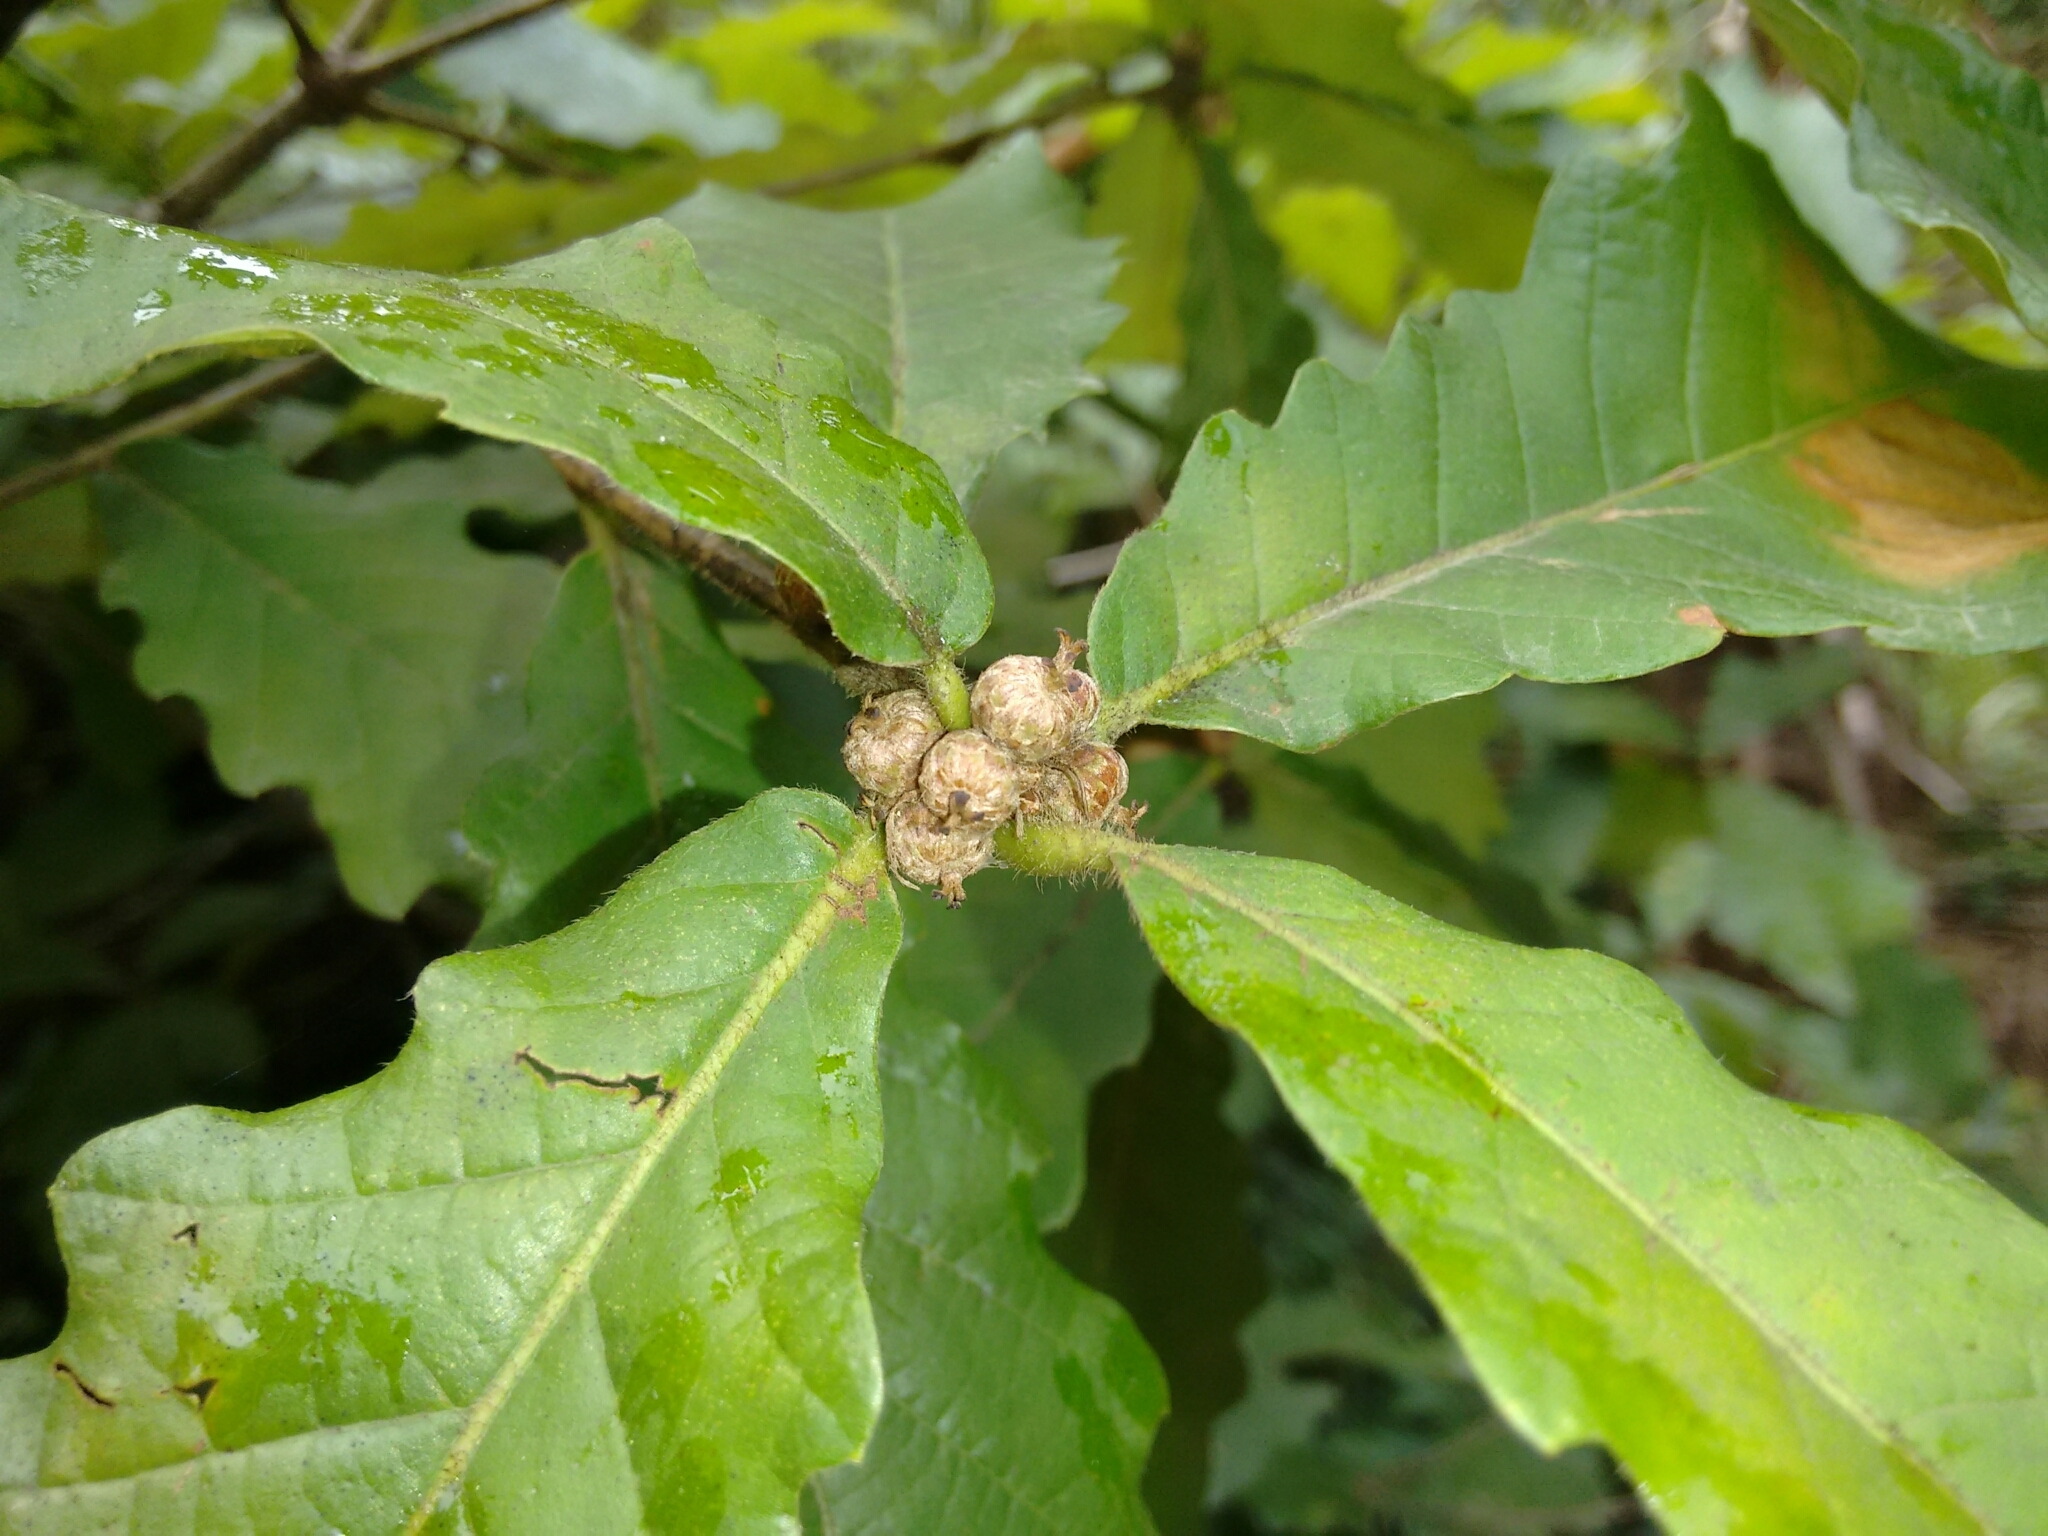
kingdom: Plantae
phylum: Tracheophyta
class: Magnoliopsida
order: Fagales
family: Fagaceae
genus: Quercus
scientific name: Quercus fabrei
